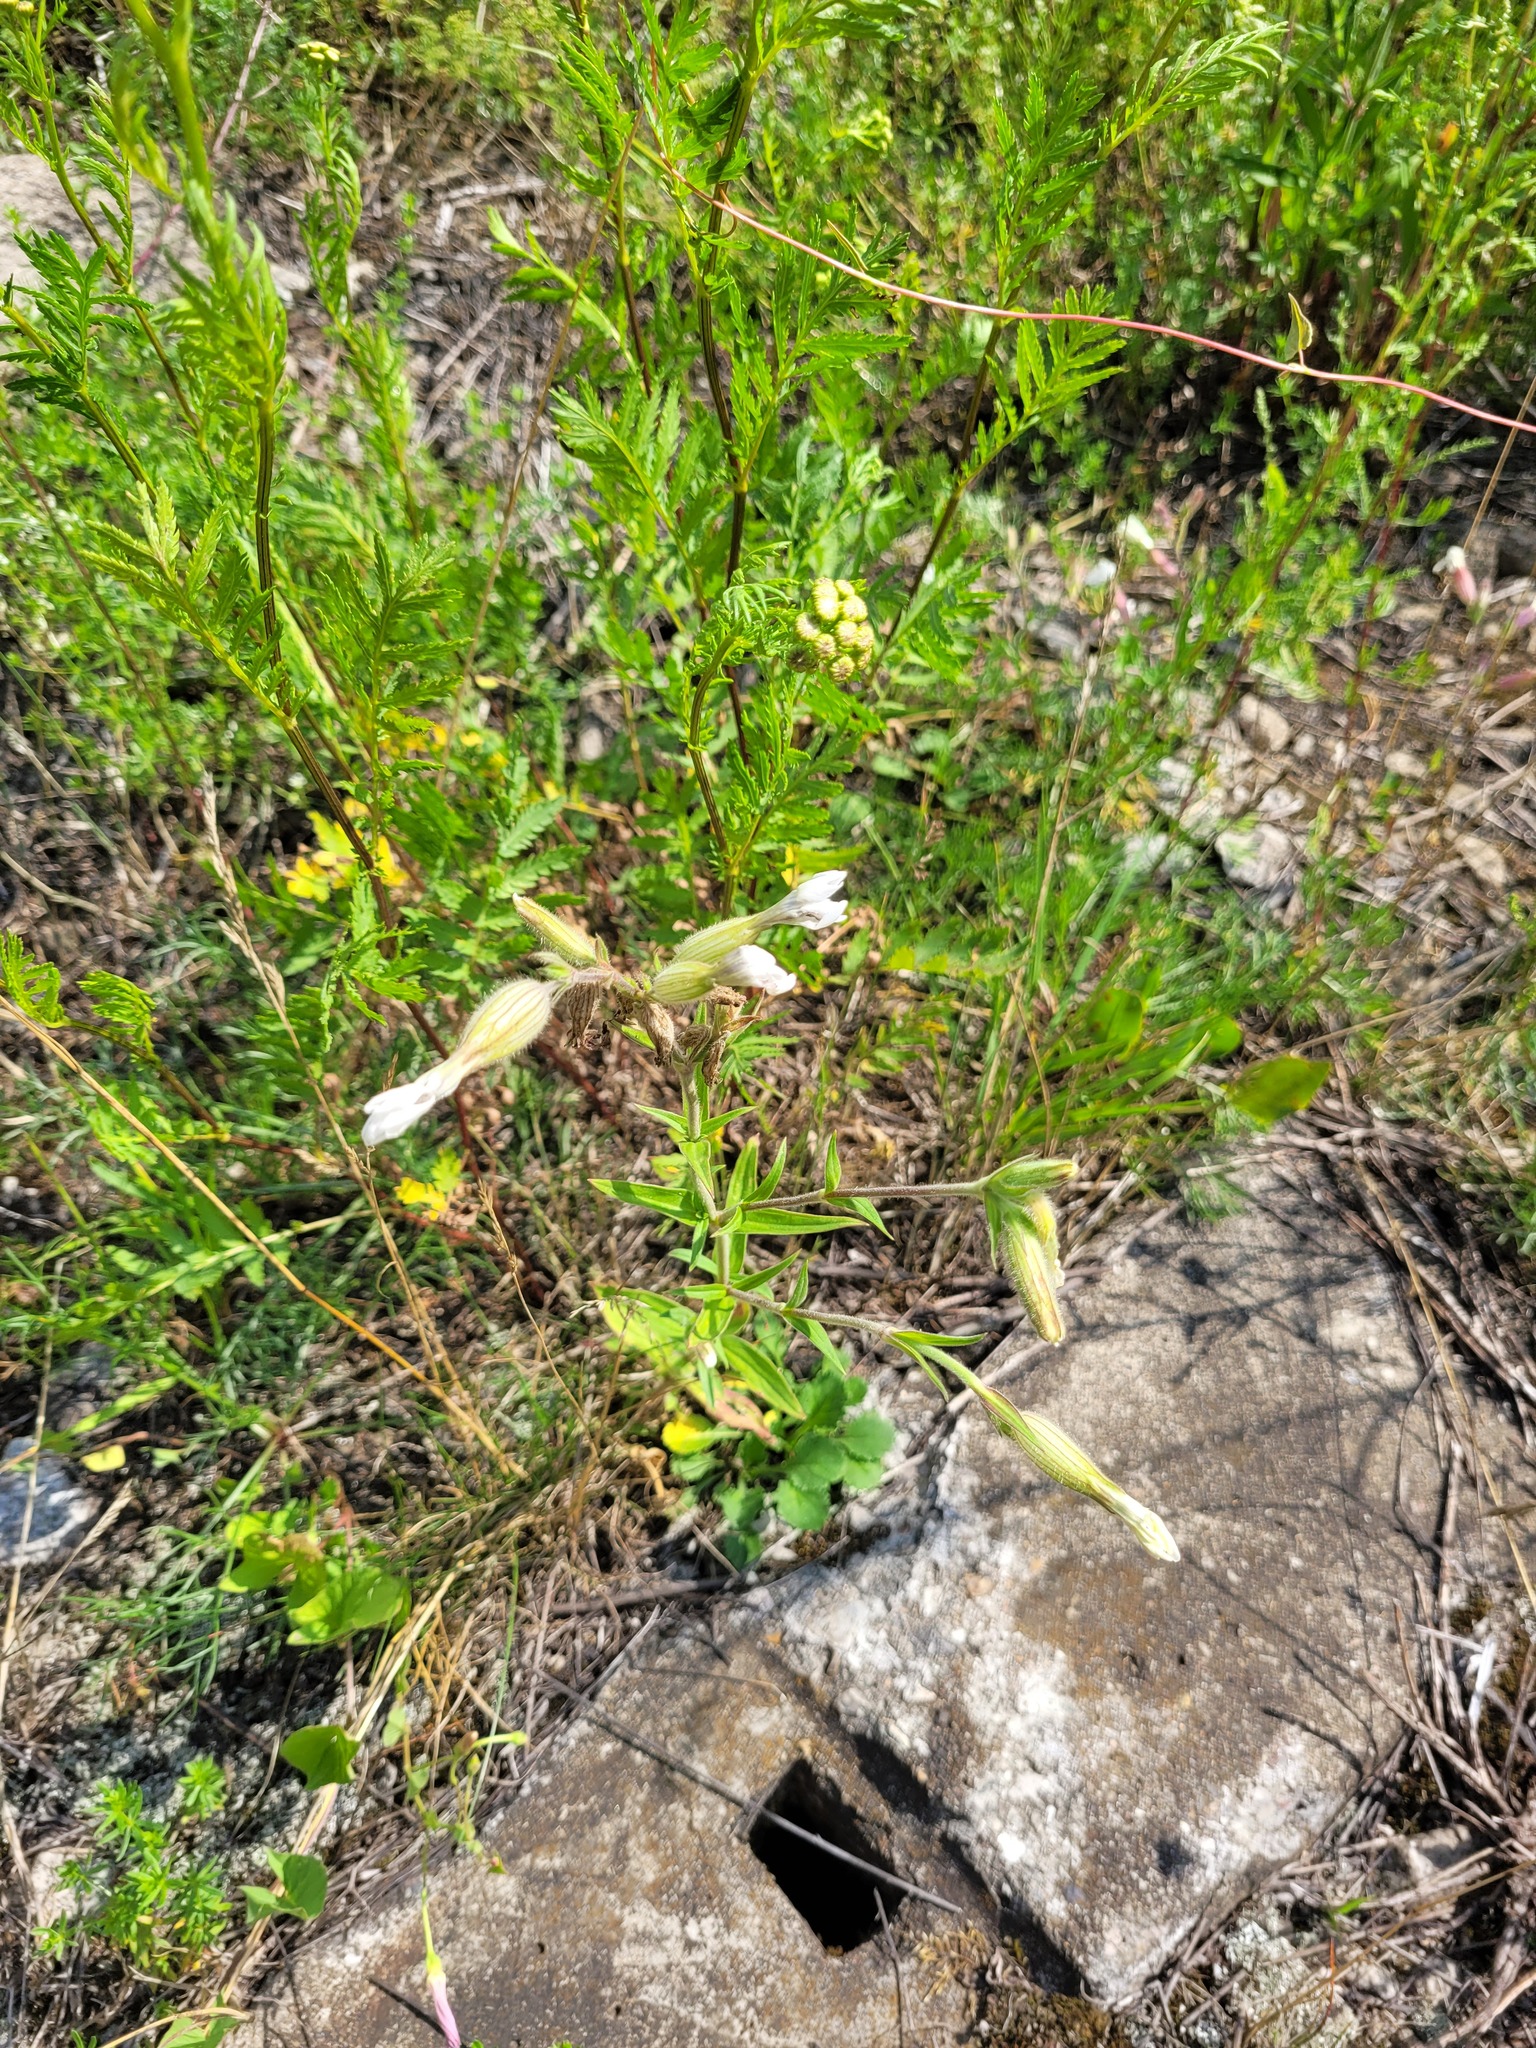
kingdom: Plantae
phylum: Tracheophyta
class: Magnoliopsida
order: Caryophyllales
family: Caryophyllaceae
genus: Silene
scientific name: Silene latifolia
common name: White campion
